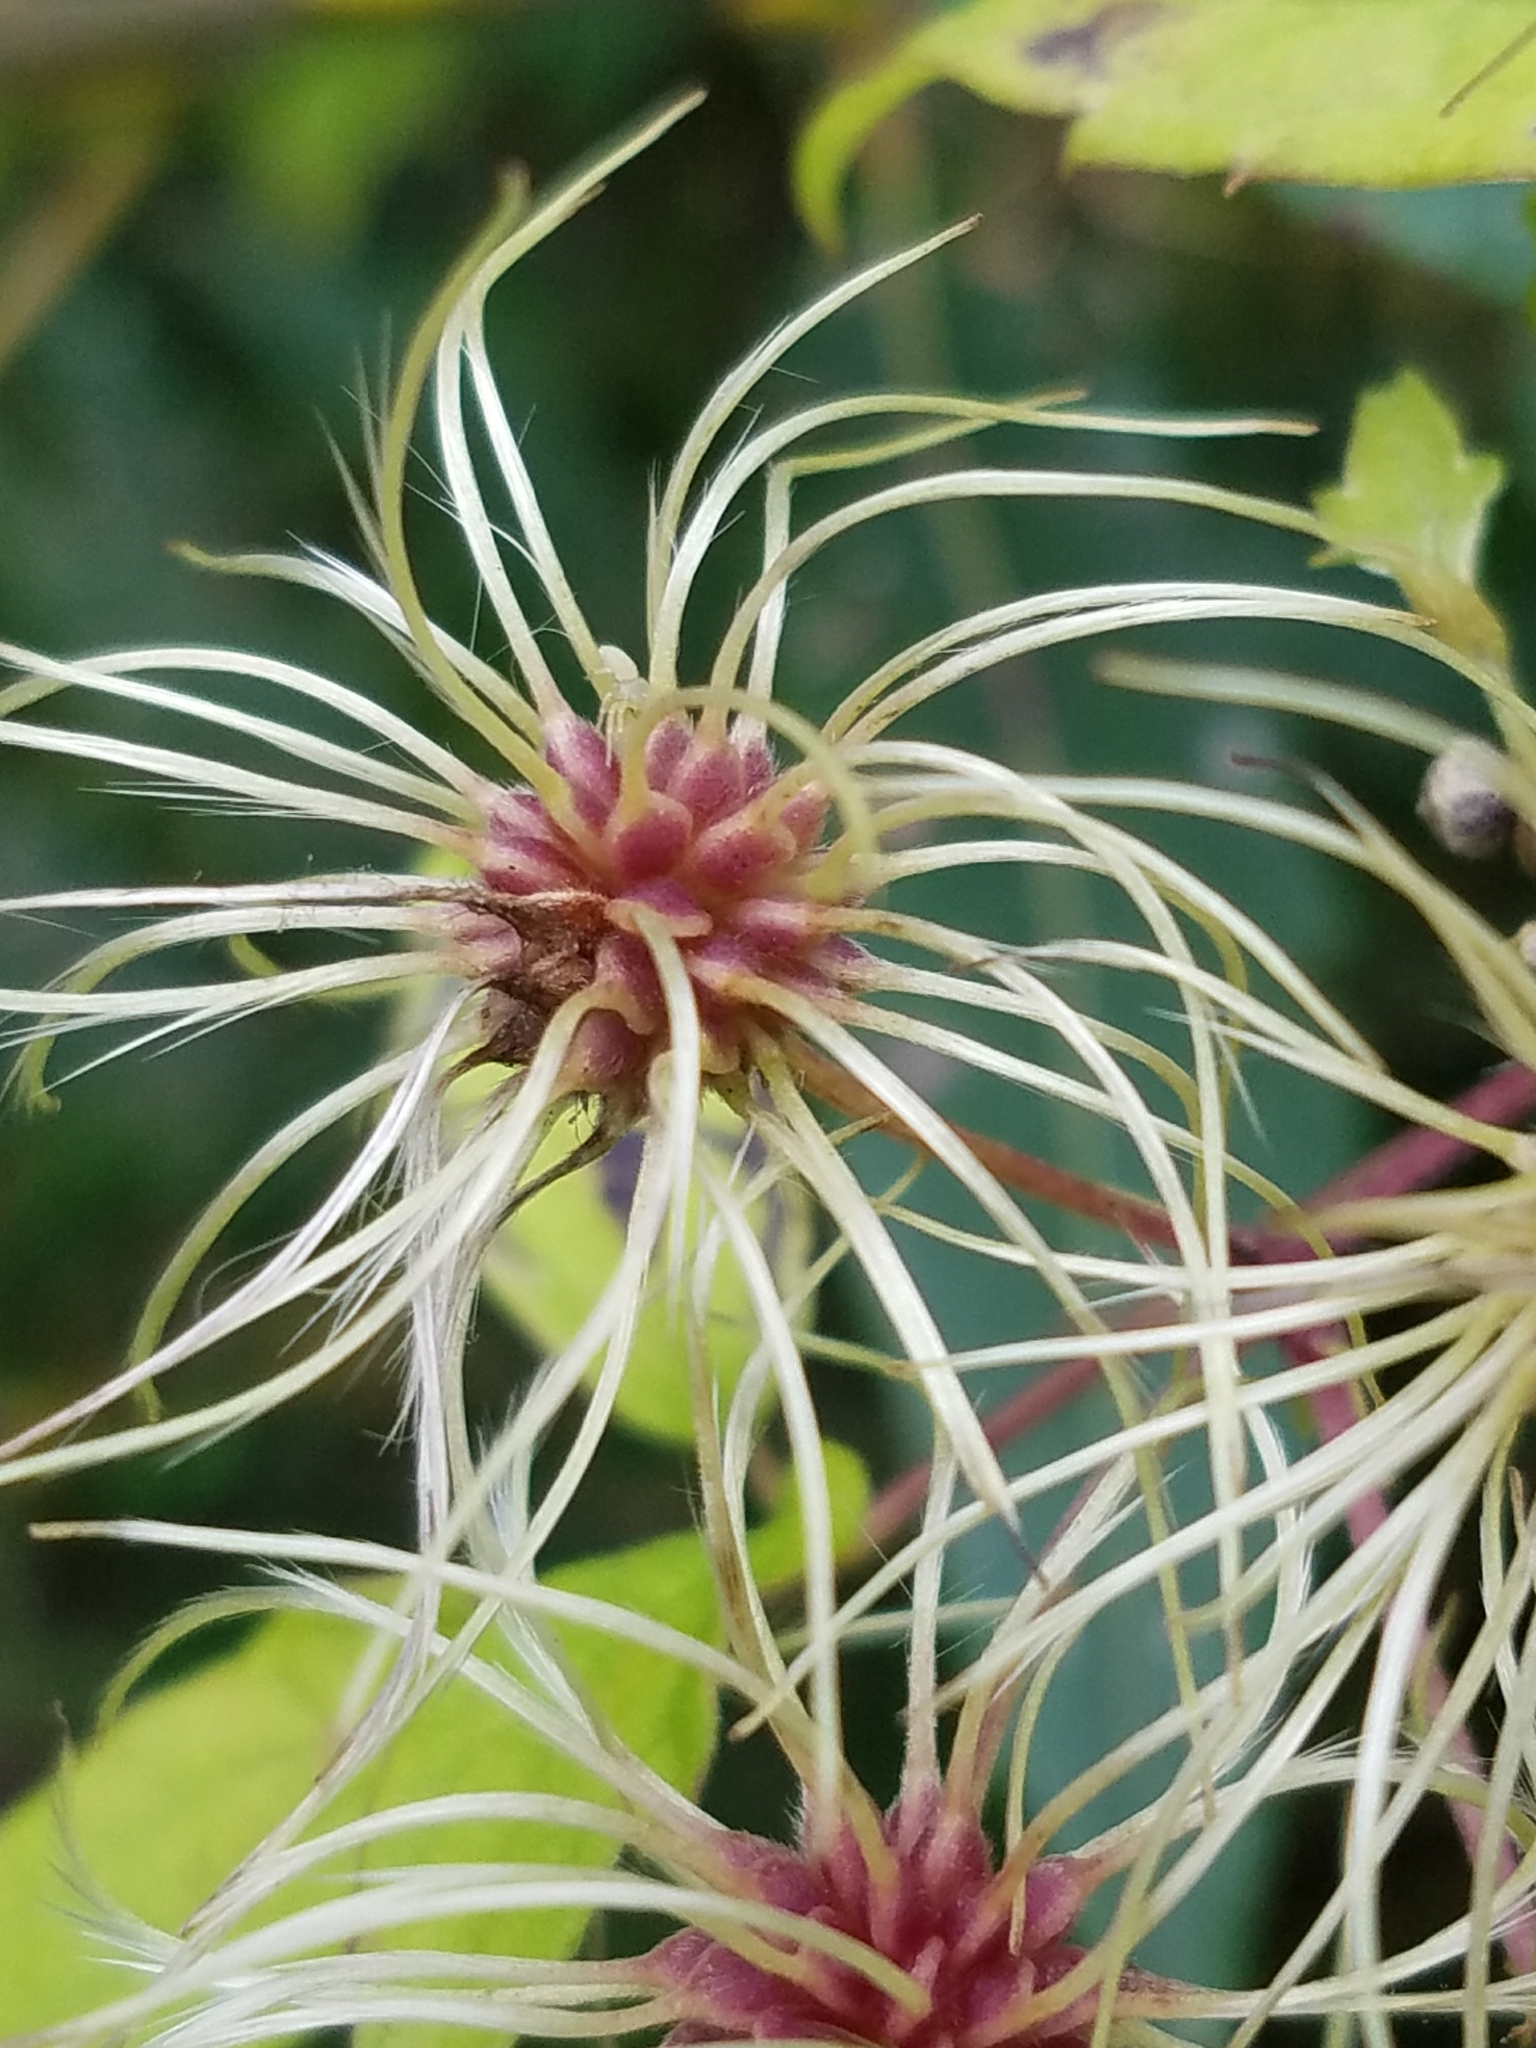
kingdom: Plantae
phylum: Tracheophyta
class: Magnoliopsida
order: Ranunculales
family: Ranunculaceae
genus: Clematis
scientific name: Clematis virginiana
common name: Virgin's-bower
